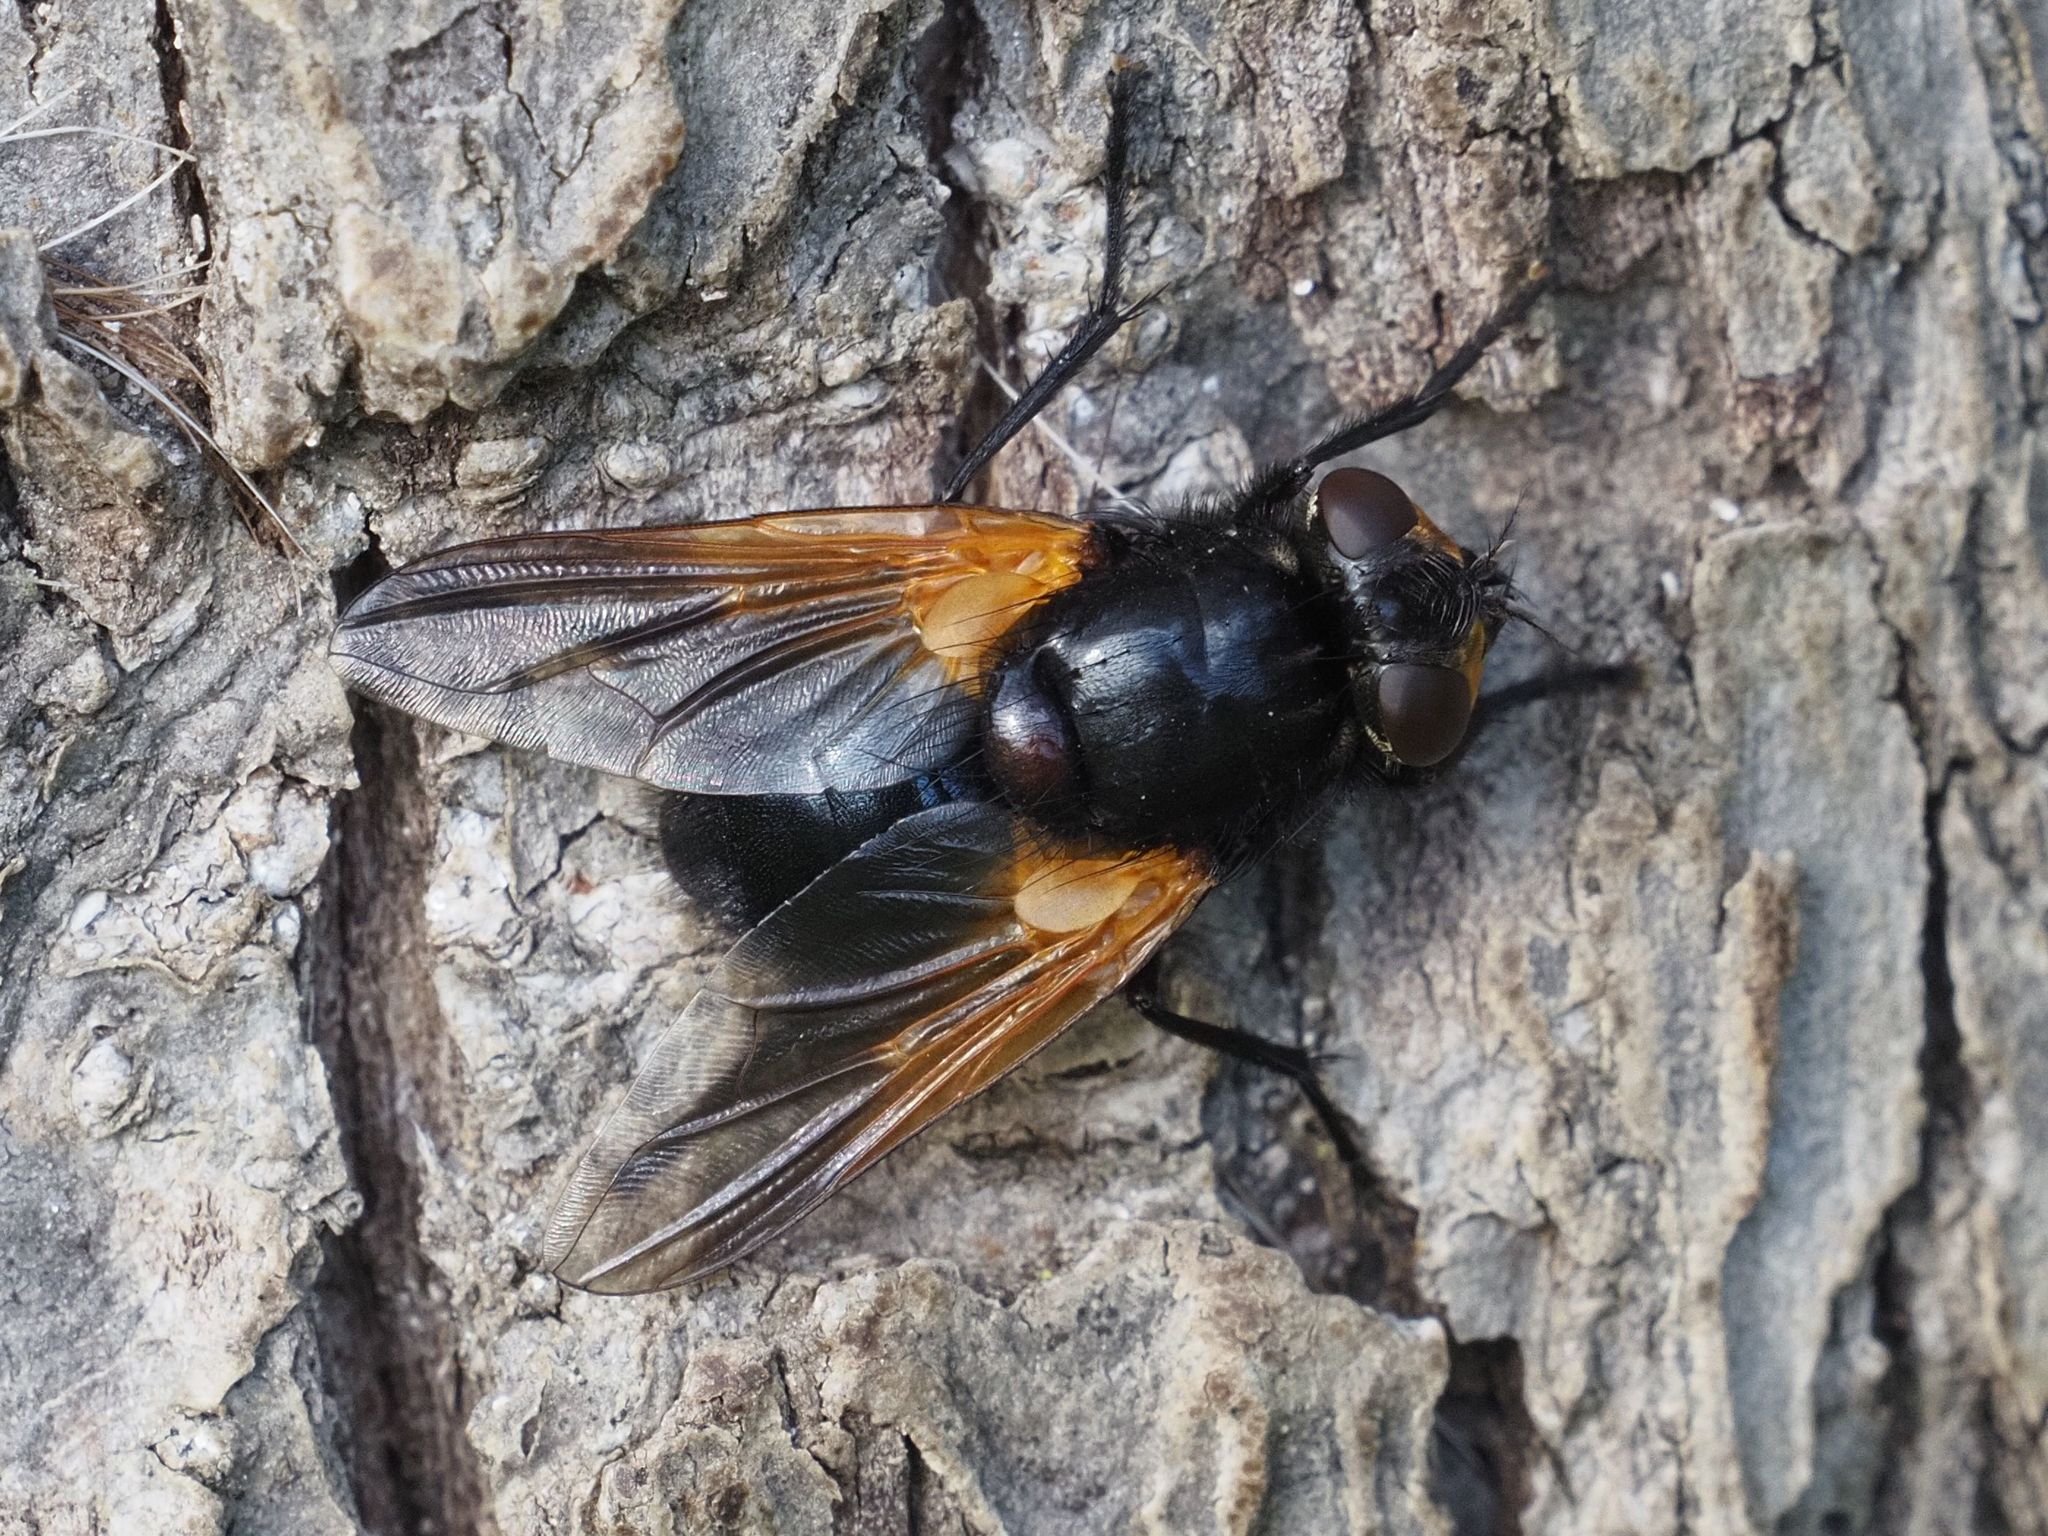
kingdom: Animalia
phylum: Arthropoda
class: Insecta
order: Diptera
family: Muscidae
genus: Mesembrina
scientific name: Mesembrina meridiana
